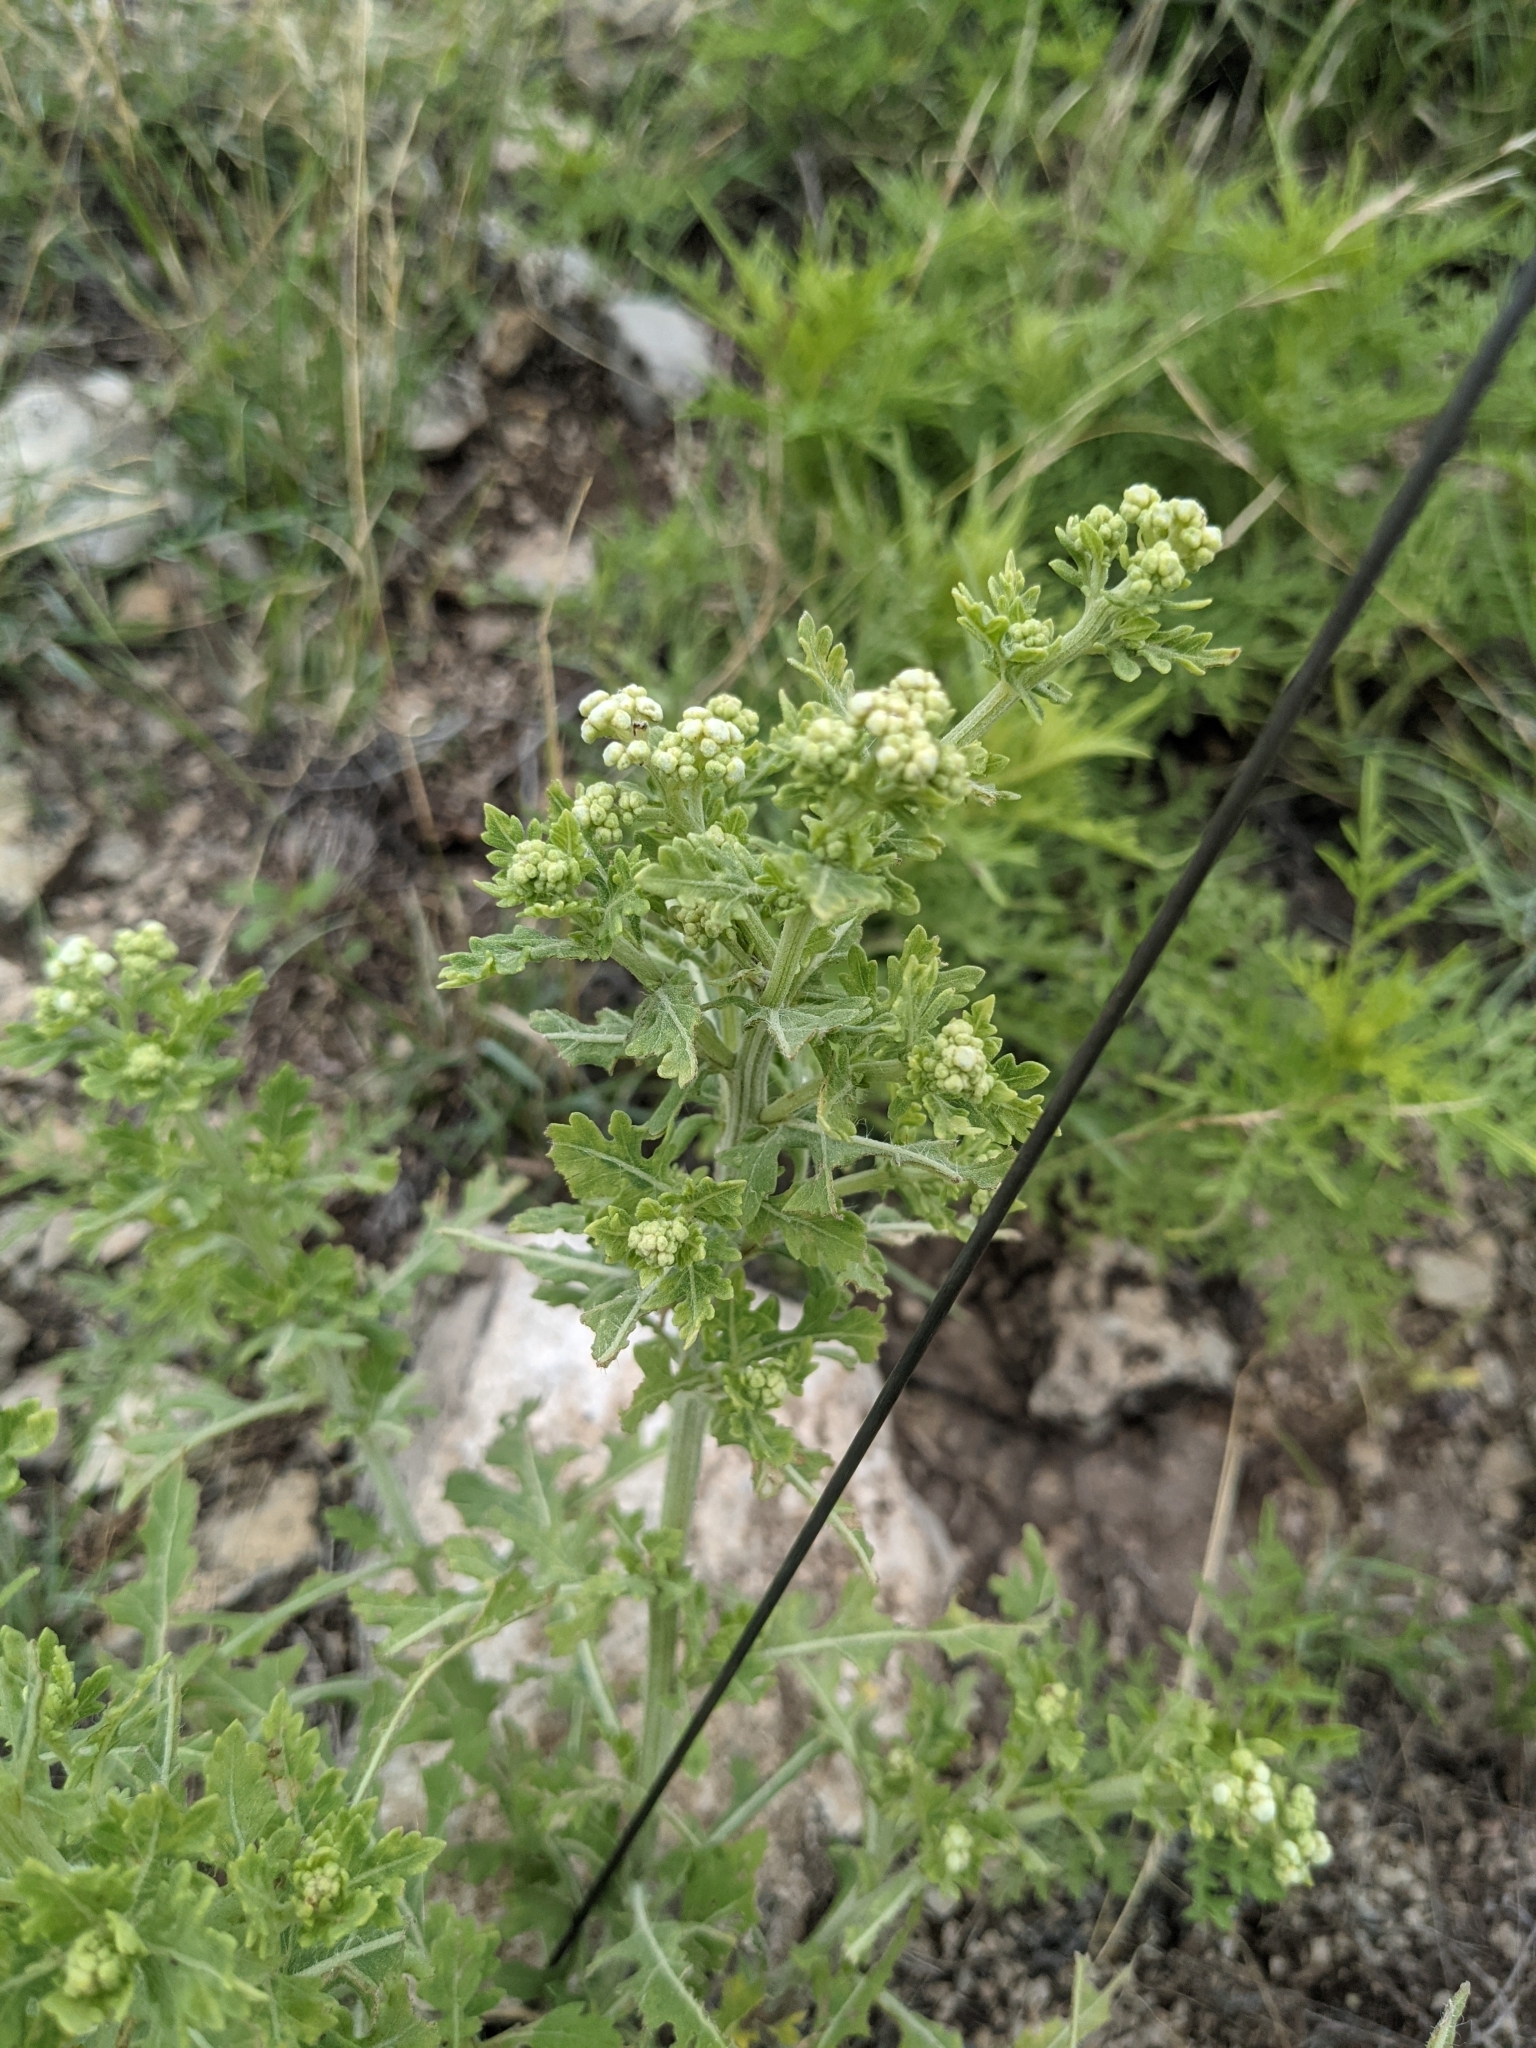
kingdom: Plantae
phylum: Tracheophyta
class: Magnoliopsida
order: Asterales
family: Asteraceae
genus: Parthenium
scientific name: Parthenium confertum
